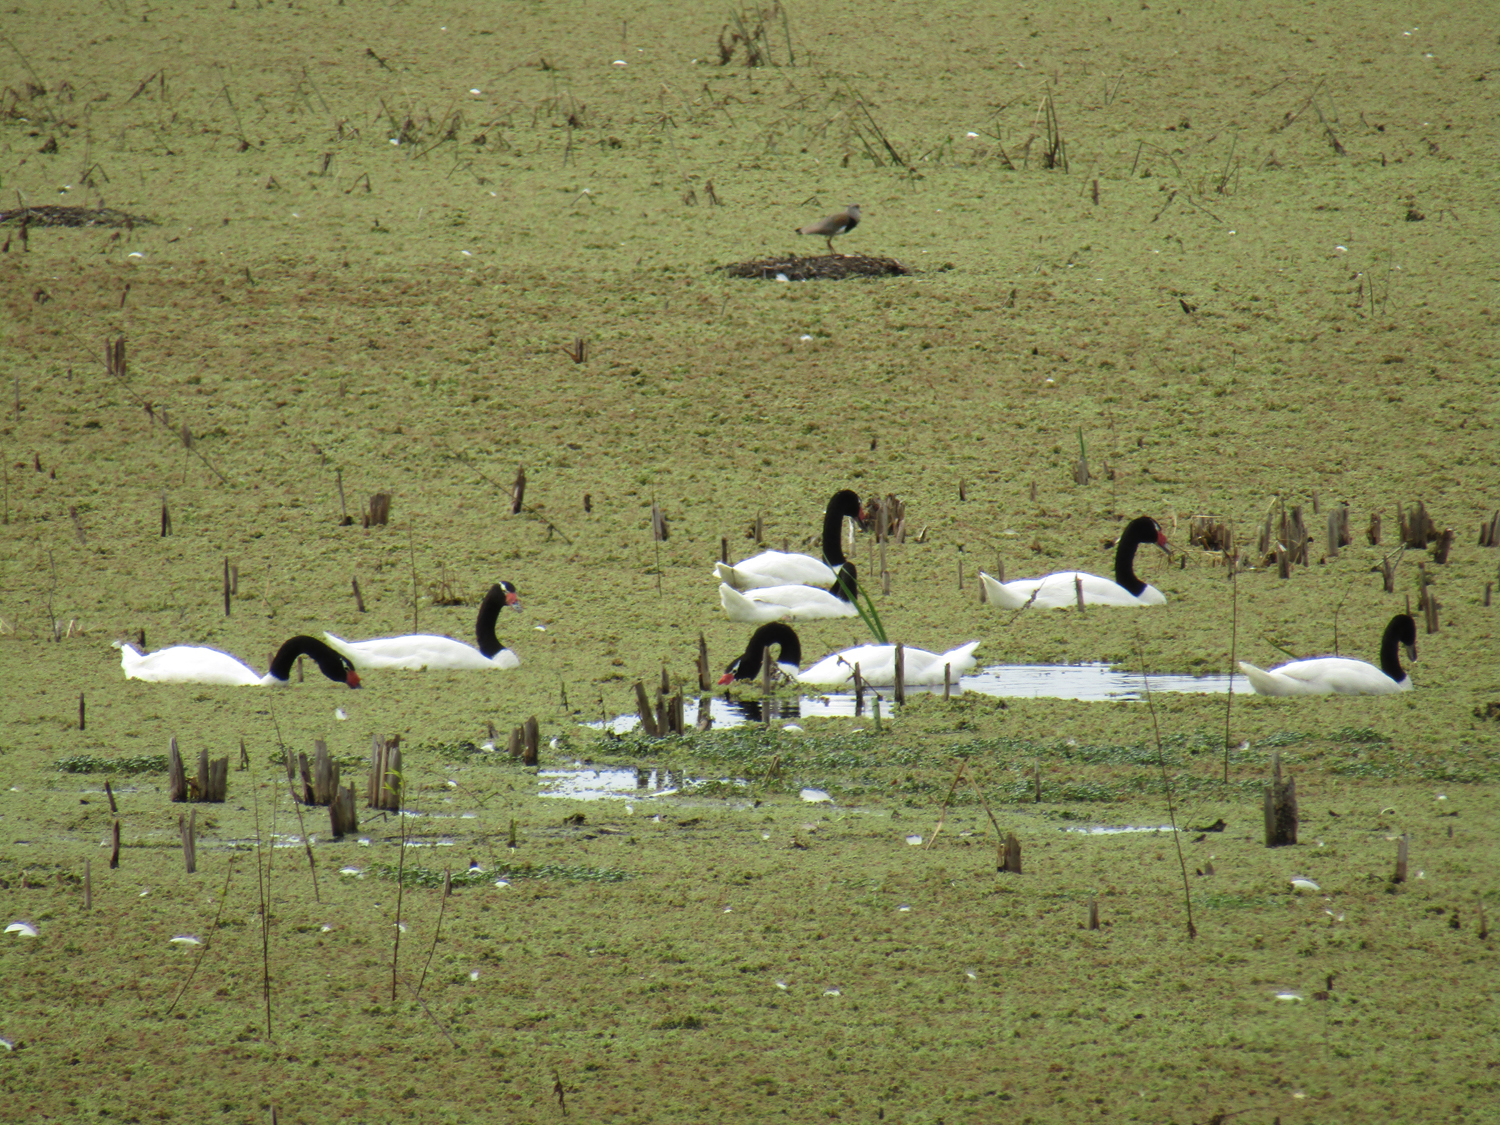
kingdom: Animalia
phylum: Chordata
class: Aves
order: Anseriformes
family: Anatidae
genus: Cygnus
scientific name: Cygnus melancoryphus
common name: Black-necked swan
